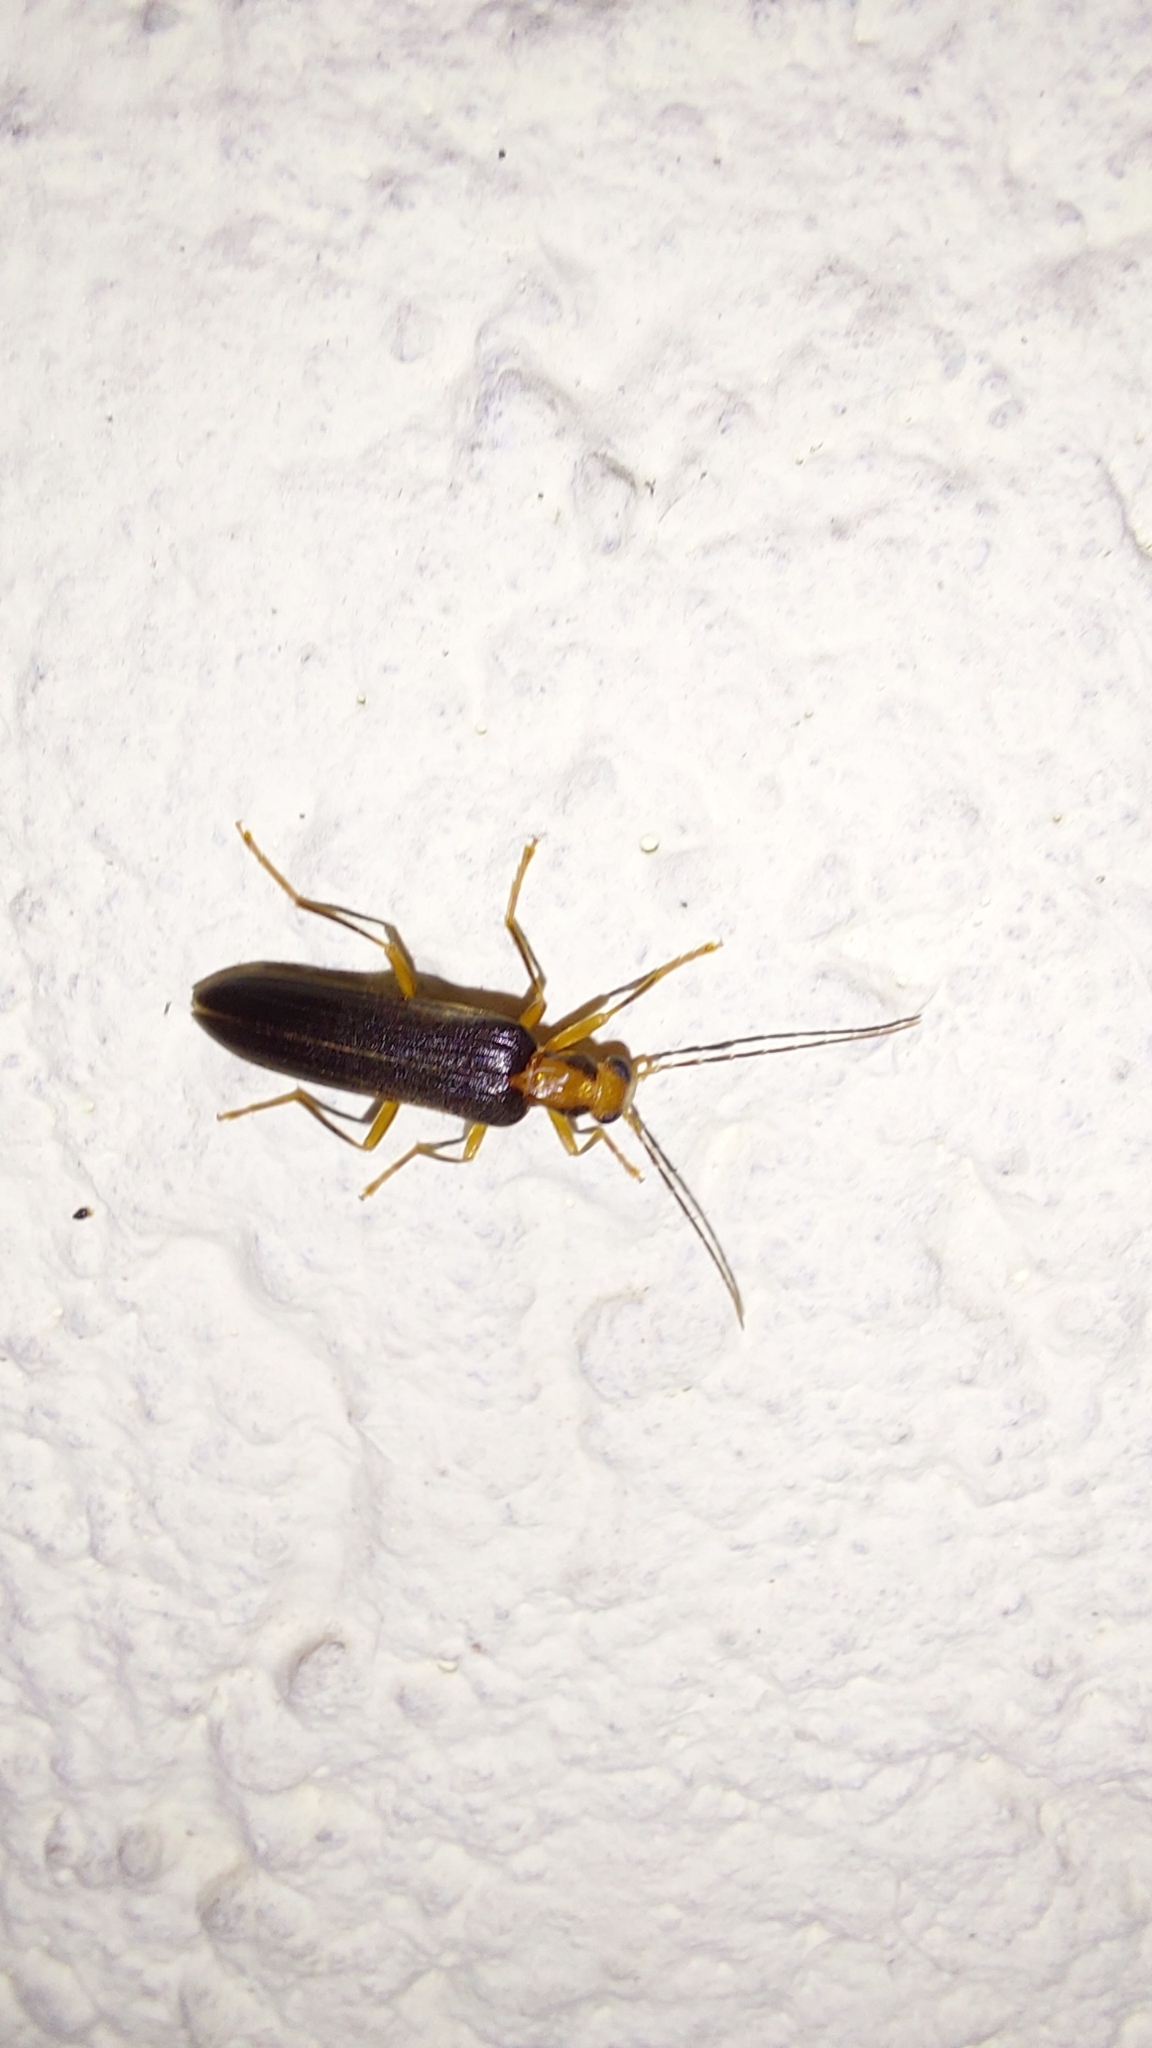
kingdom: Animalia
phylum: Arthropoda
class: Insecta
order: Coleoptera
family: Oedemeridae
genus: Nacerdes
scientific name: Nacerdes carniolica
